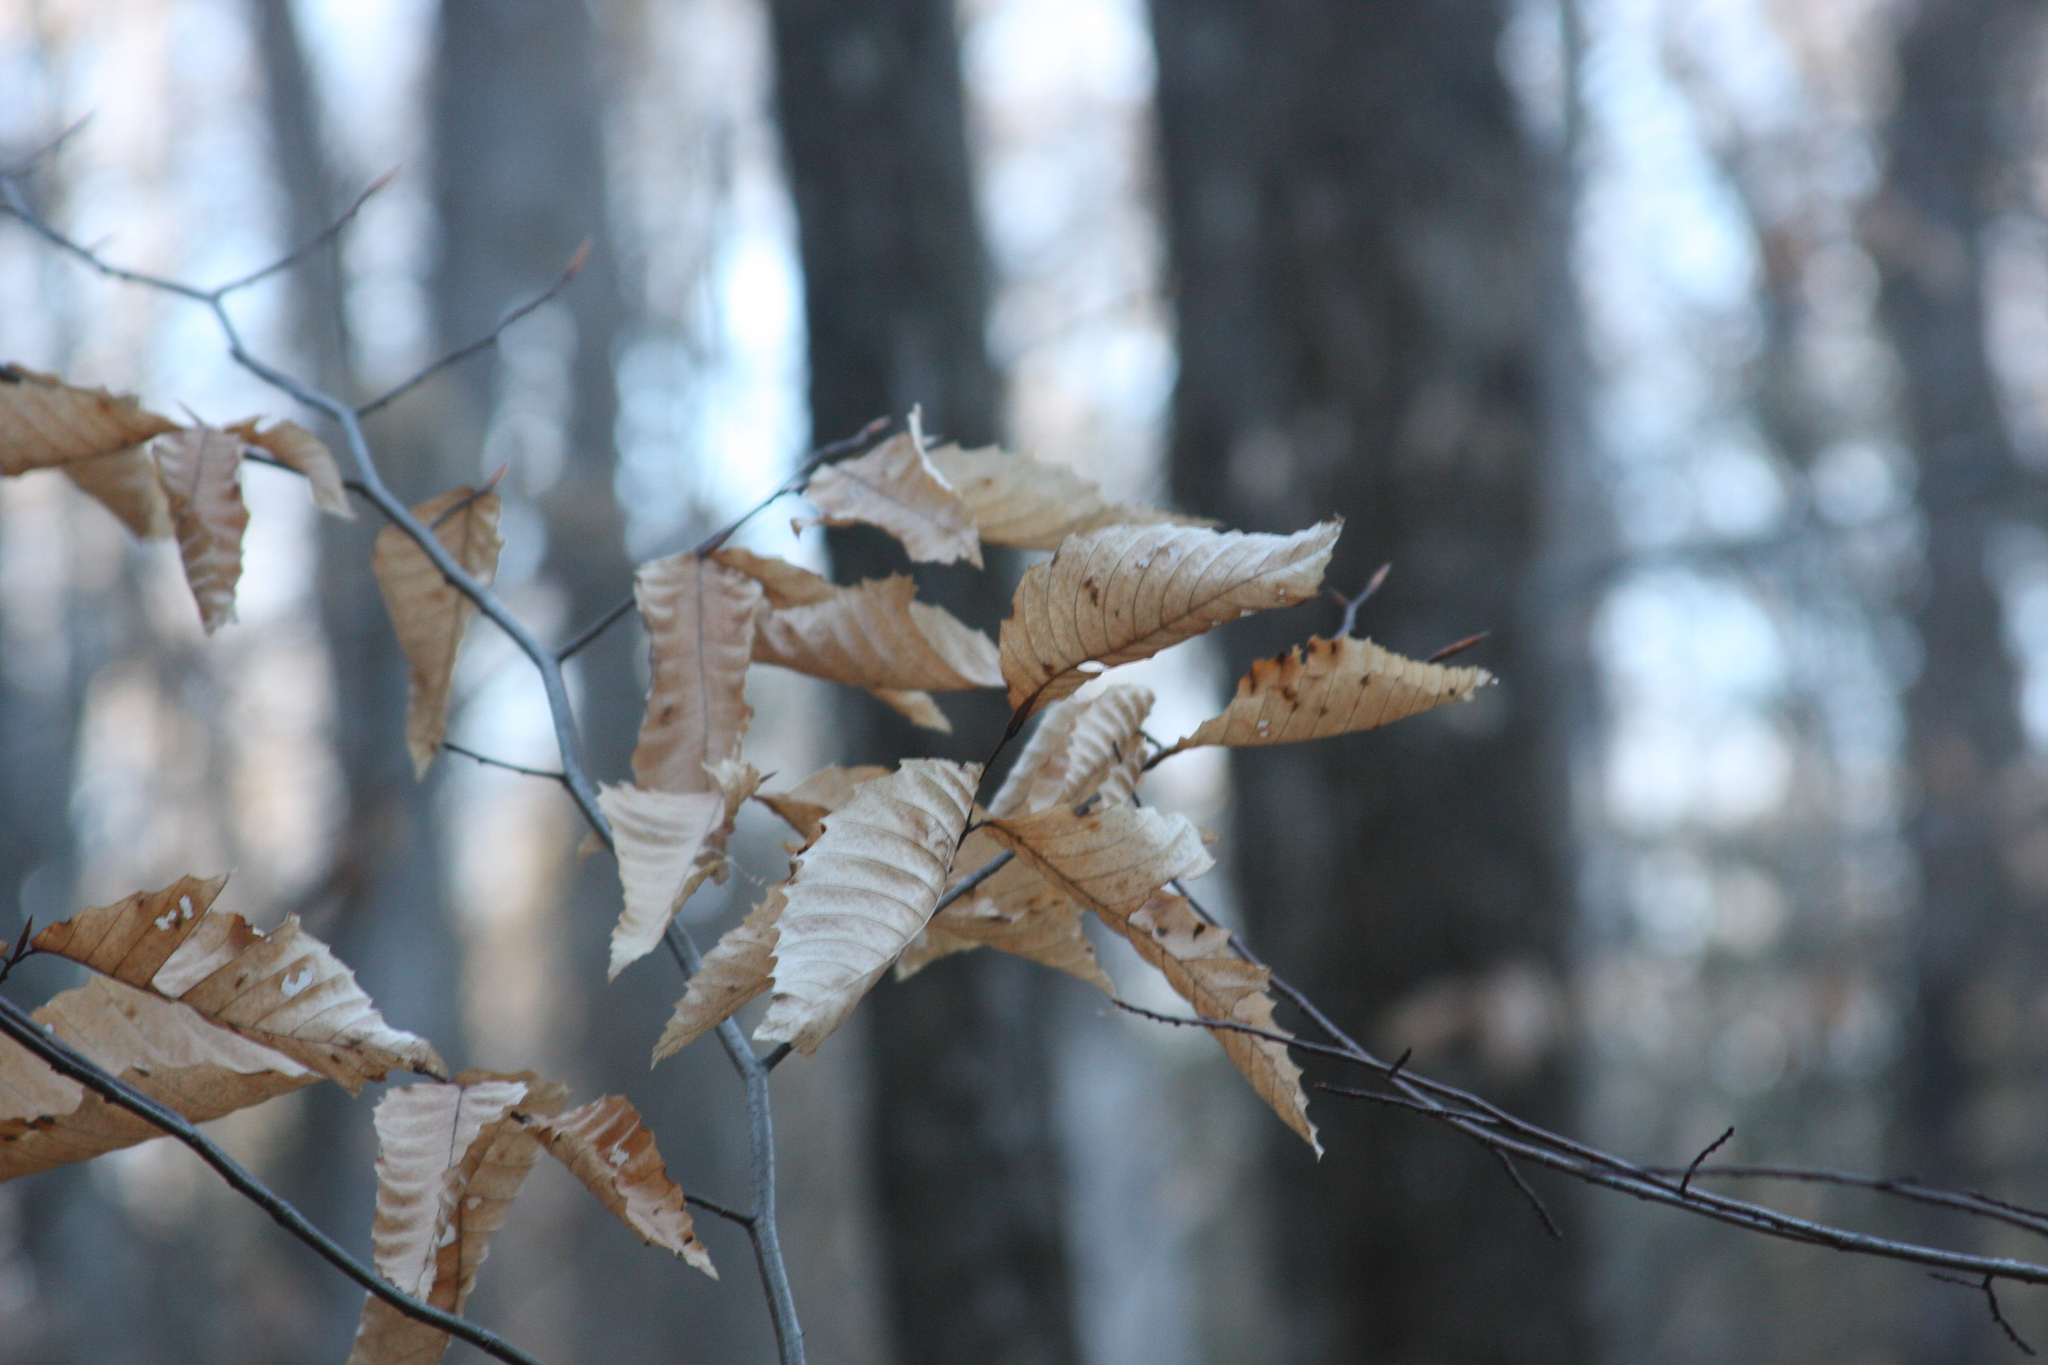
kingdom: Plantae
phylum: Tracheophyta
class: Magnoliopsida
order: Fagales
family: Fagaceae
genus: Fagus
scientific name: Fagus grandifolia
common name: American beech
